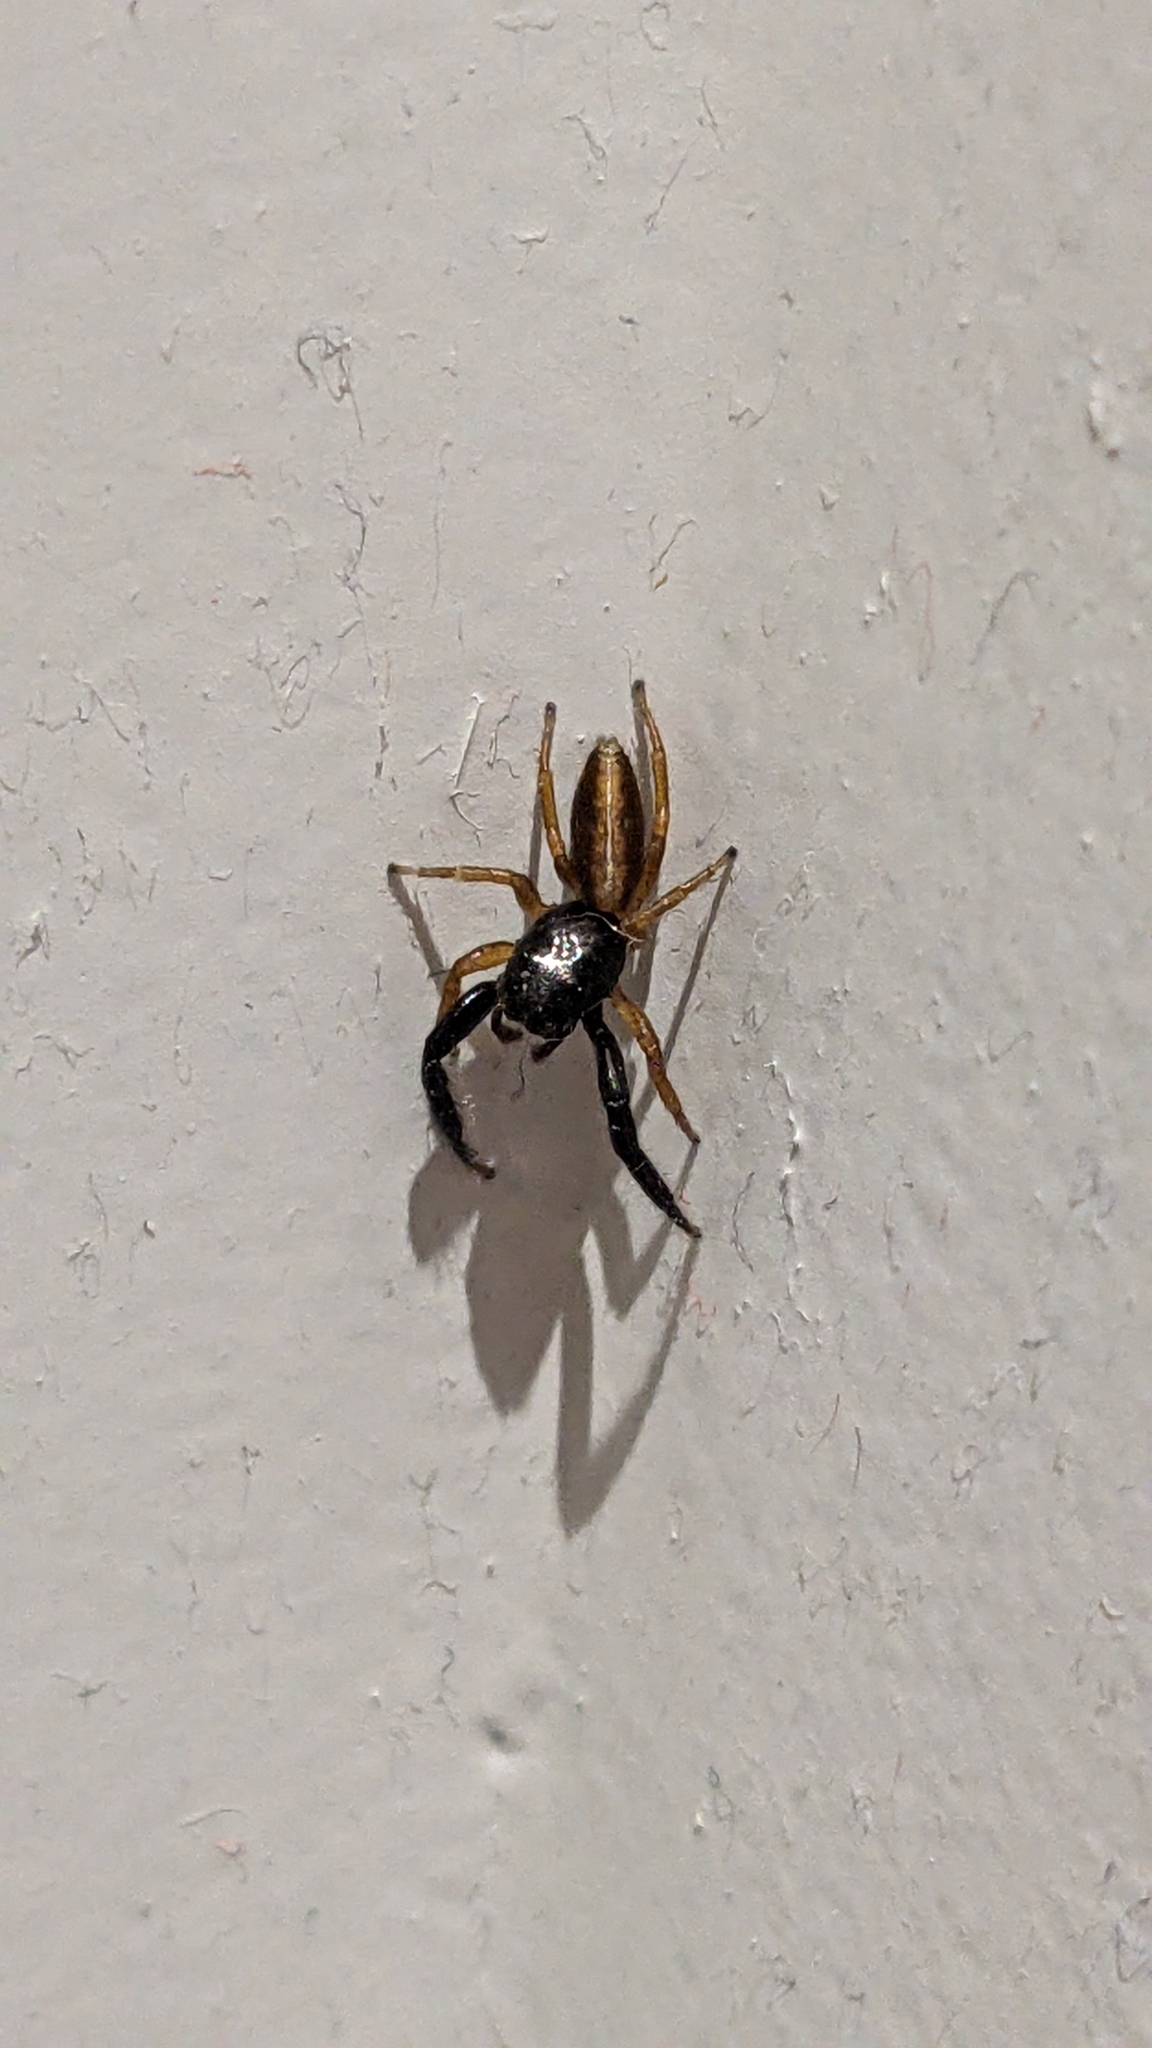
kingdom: Animalia
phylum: Arthropoda
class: Arachnida
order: Araneae
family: Salticidae
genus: Trite
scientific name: Trite planiceps
